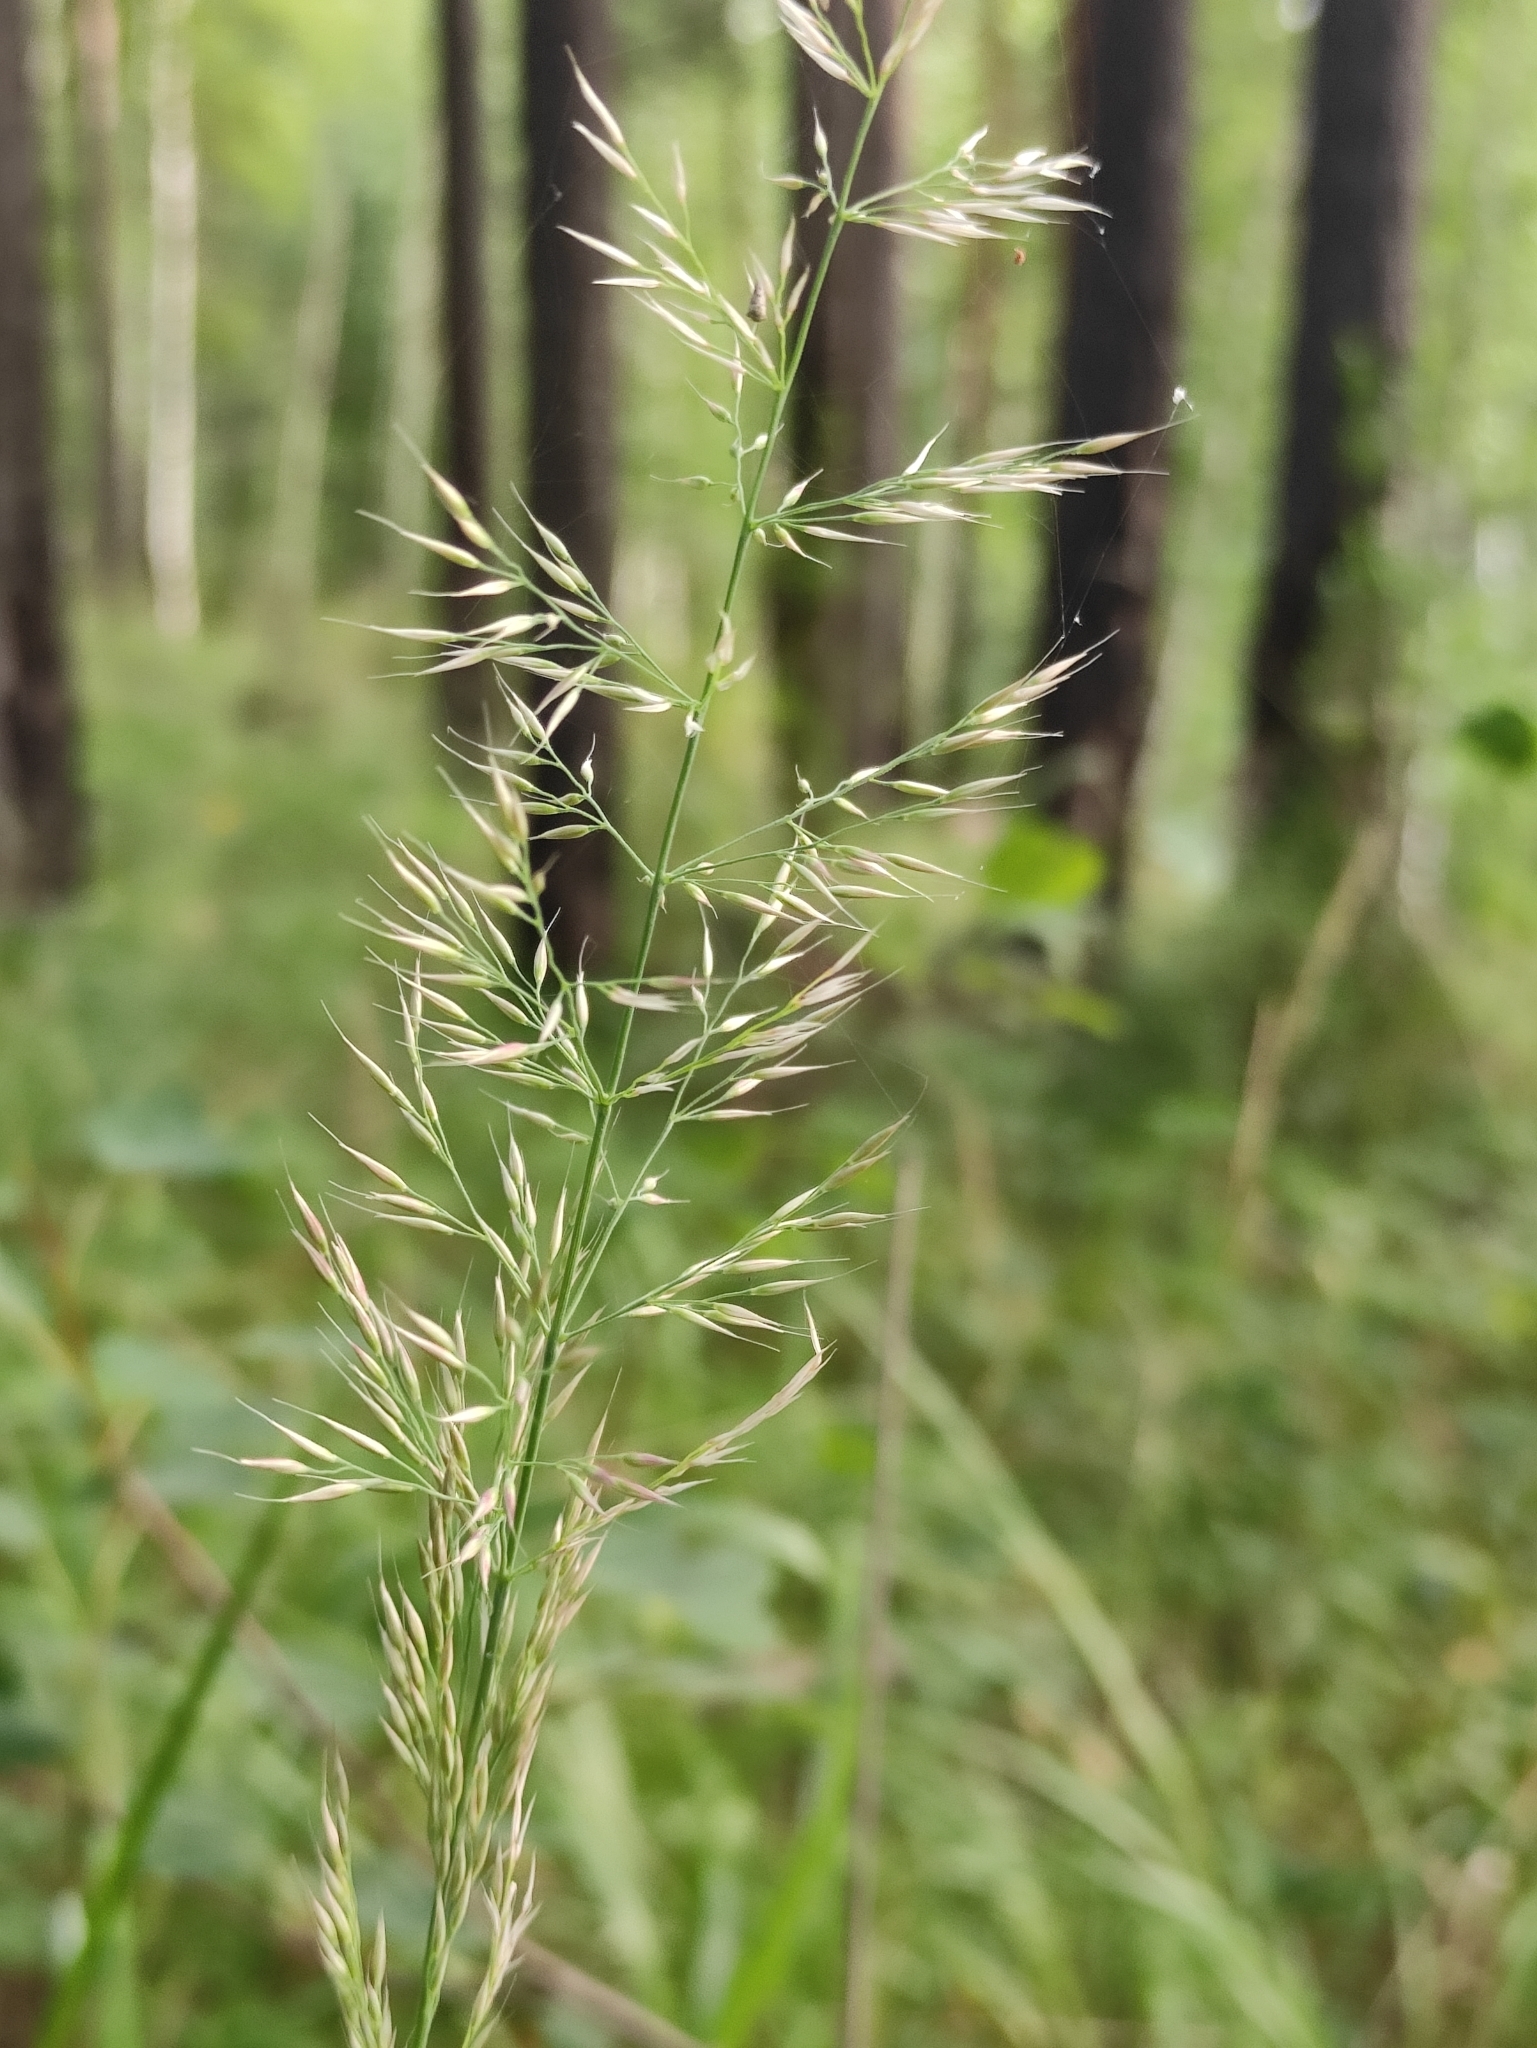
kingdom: Plantae
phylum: Tracheophyta
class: Liliopsida
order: Poales
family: Poaceae
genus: Calamagrostis
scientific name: Calamagrostis arundinacea
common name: Metskastik
